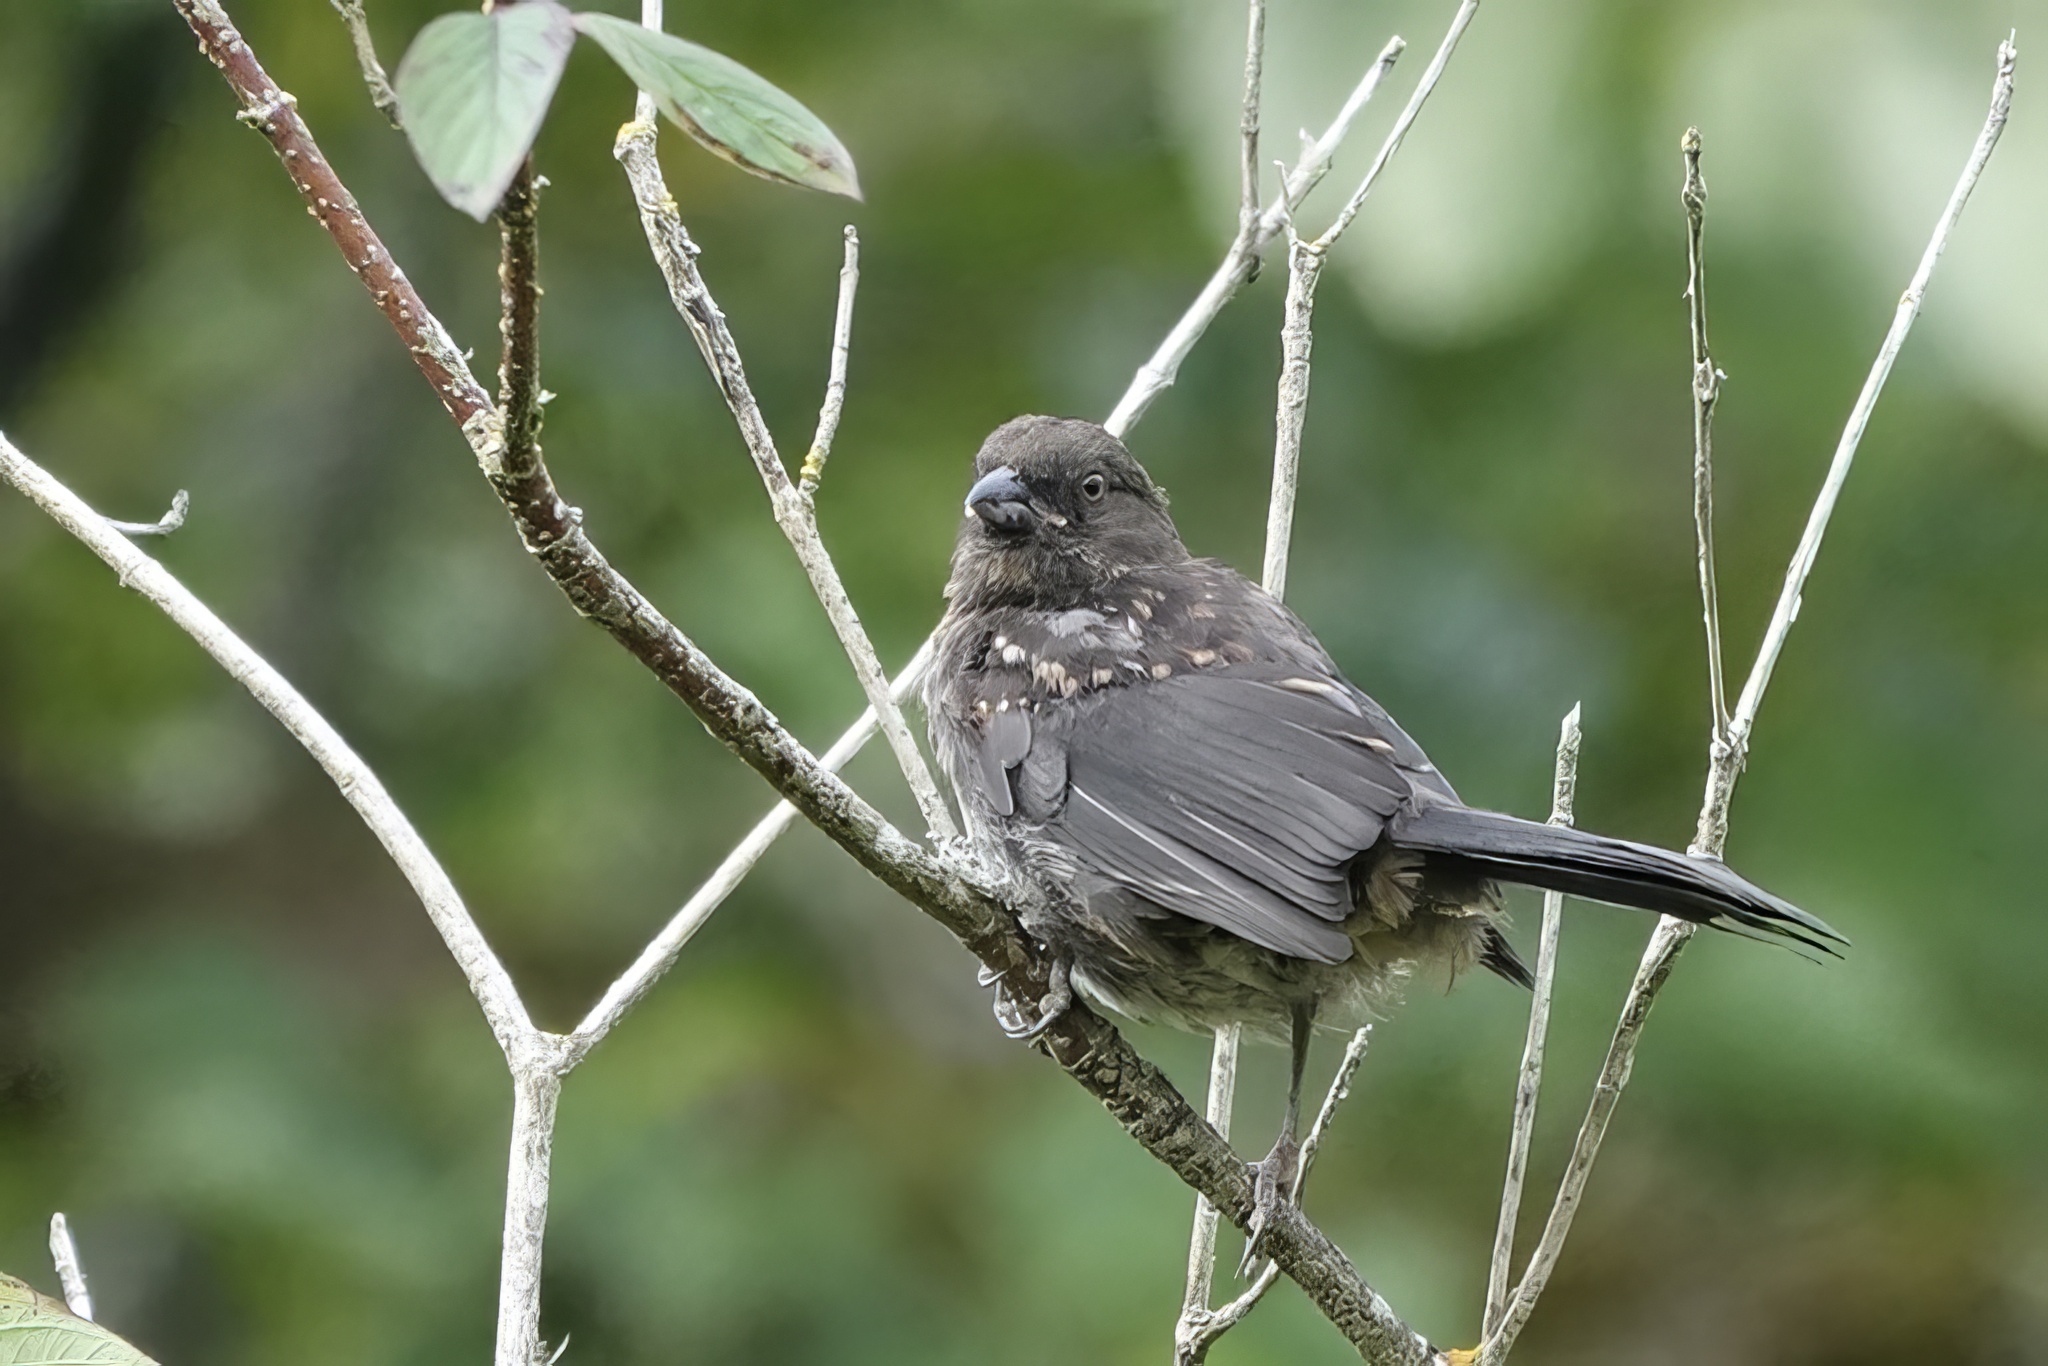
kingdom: Animalia
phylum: Chordata
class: Aves
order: Passeriformes
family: Passerellidae
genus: Pipilo
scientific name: Pipilo maculatus
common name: Spotted towhee
